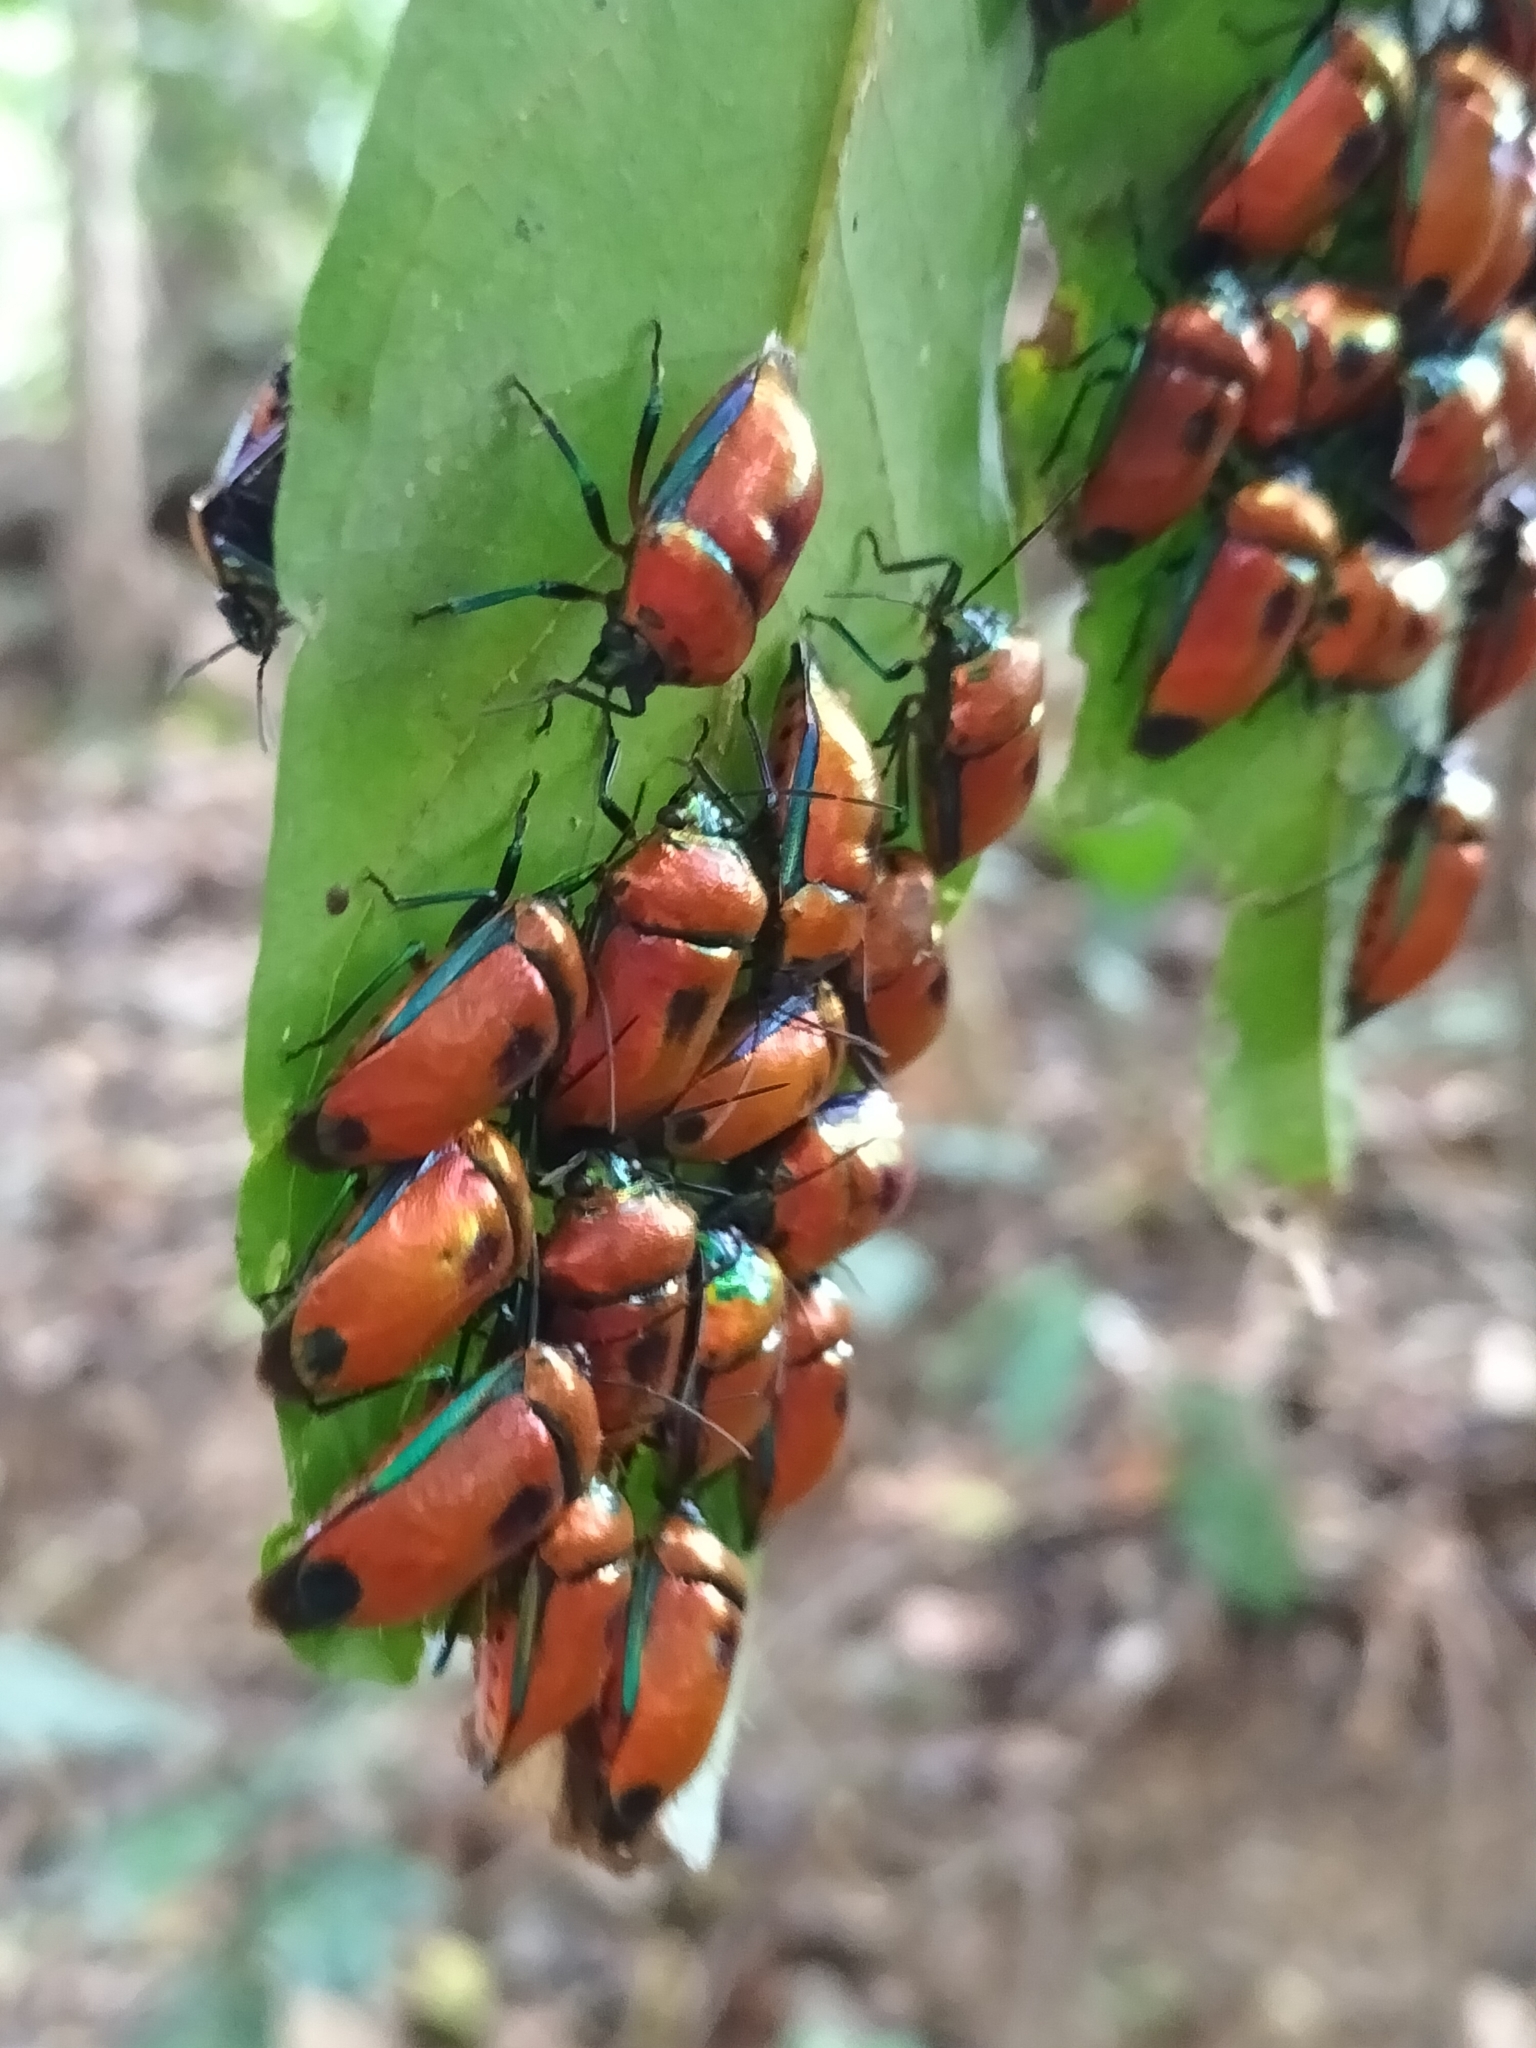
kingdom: Animalia
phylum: Arthropoda
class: Insecta
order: Hemiptera
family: Scutelleridae
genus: Calliphara
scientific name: Calliphara regalis
